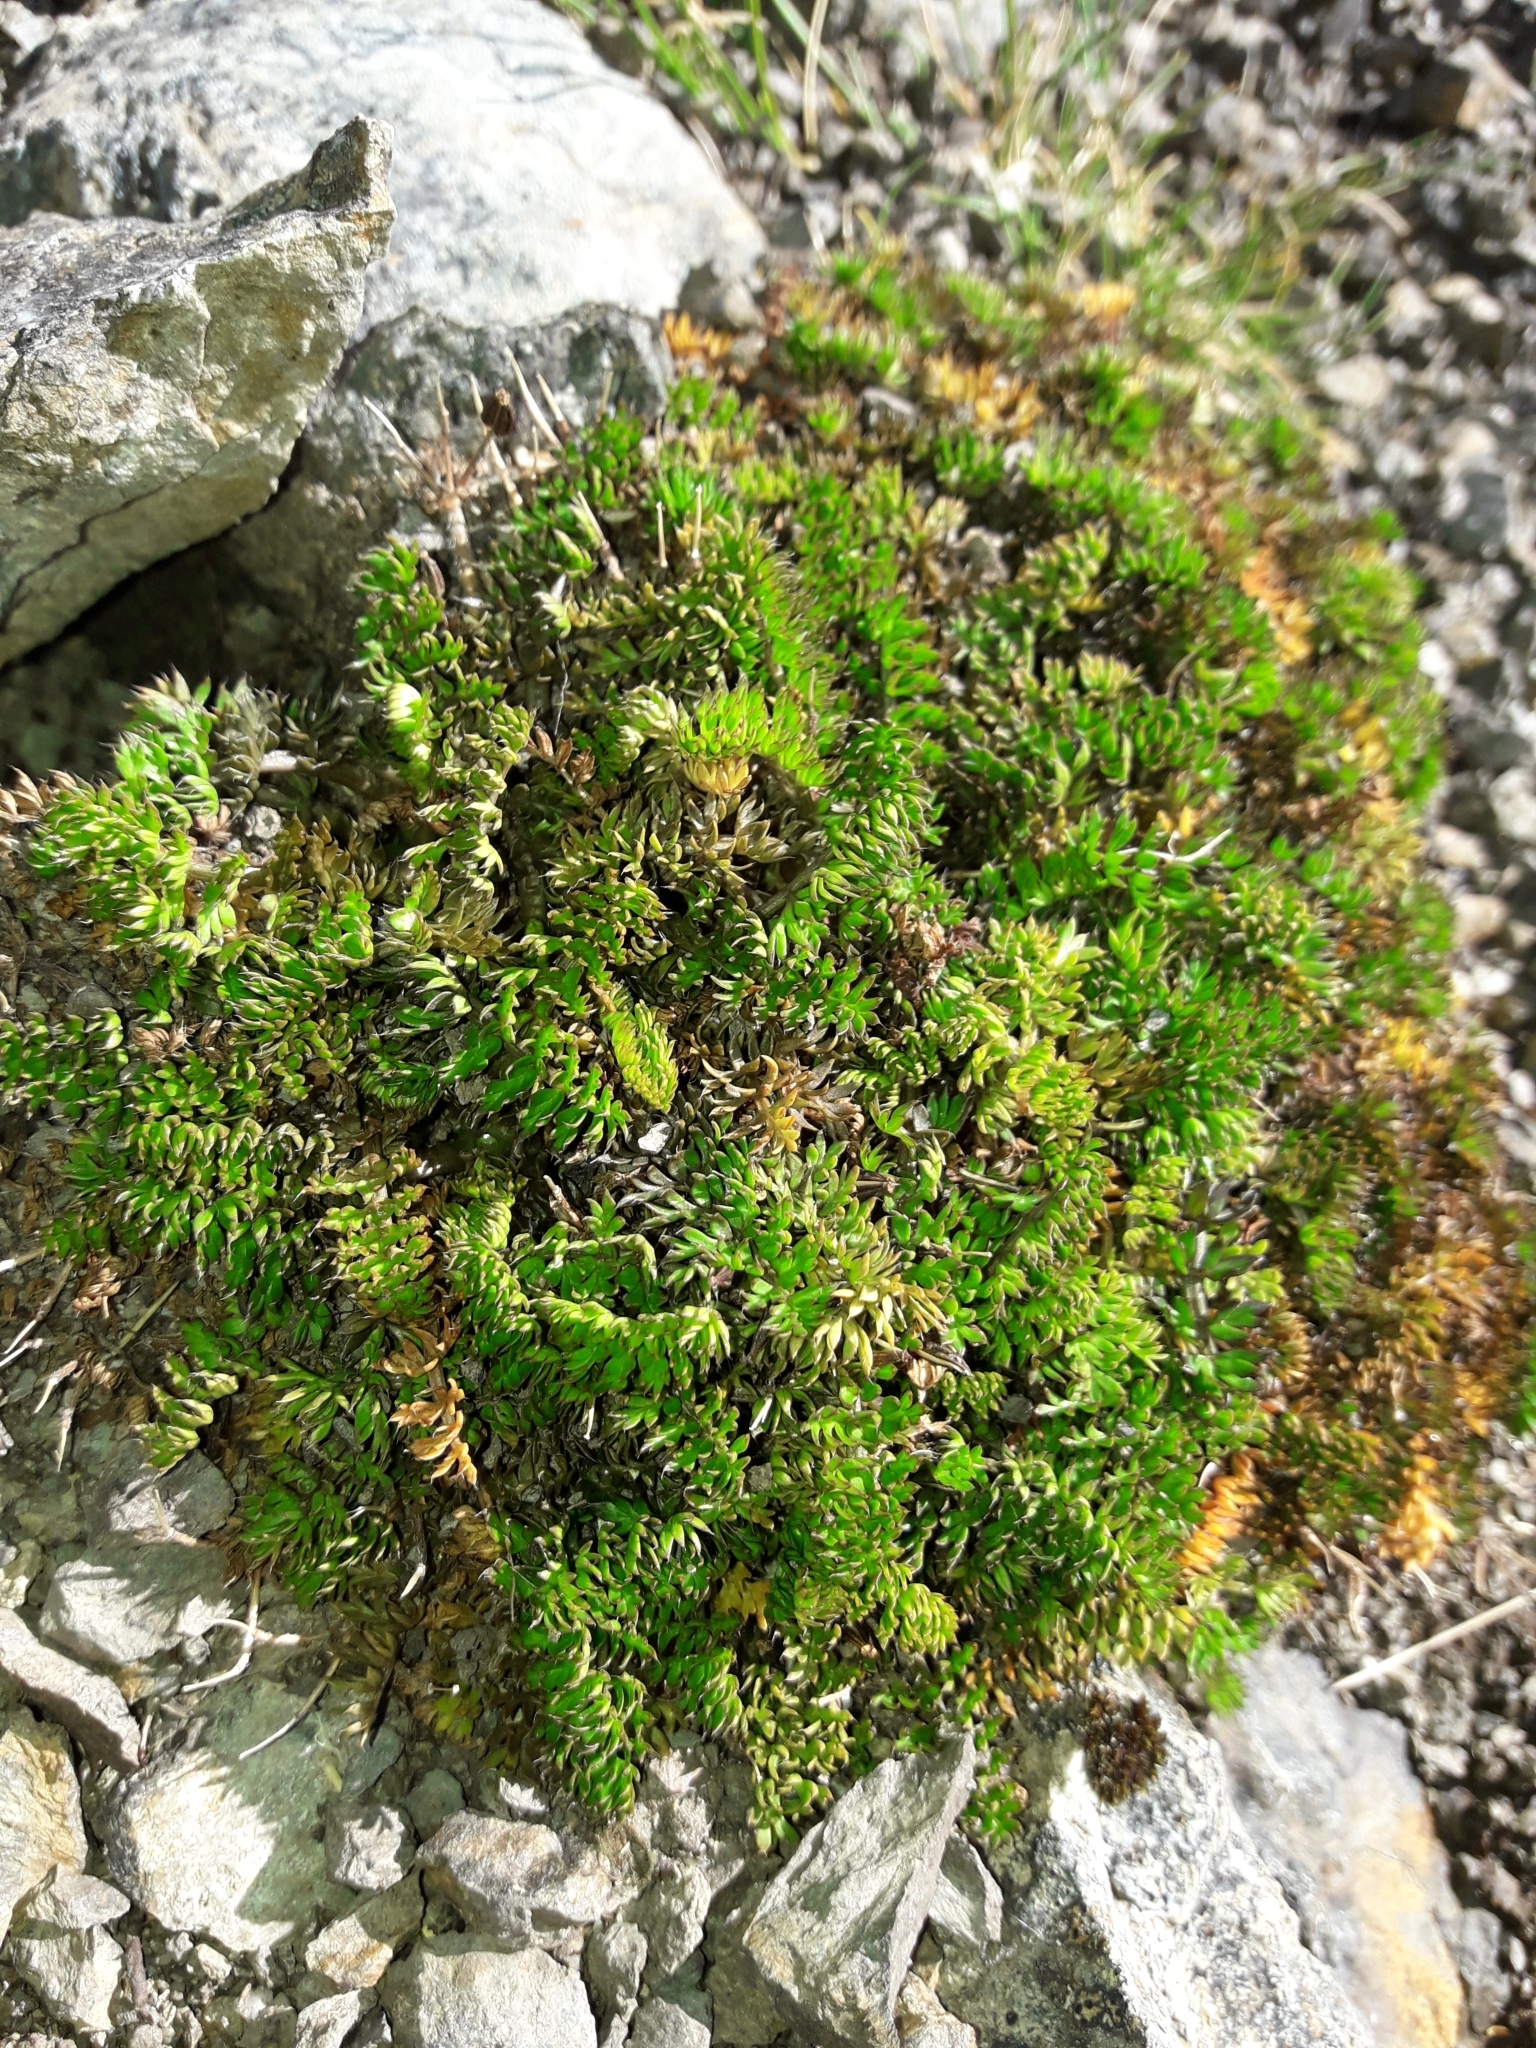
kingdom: Plantae
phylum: Tracheophyta
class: Magnoliopsida
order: Apiales
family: Apiaceae
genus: Chaerophyllum
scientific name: Chaerophyllum colensoi
